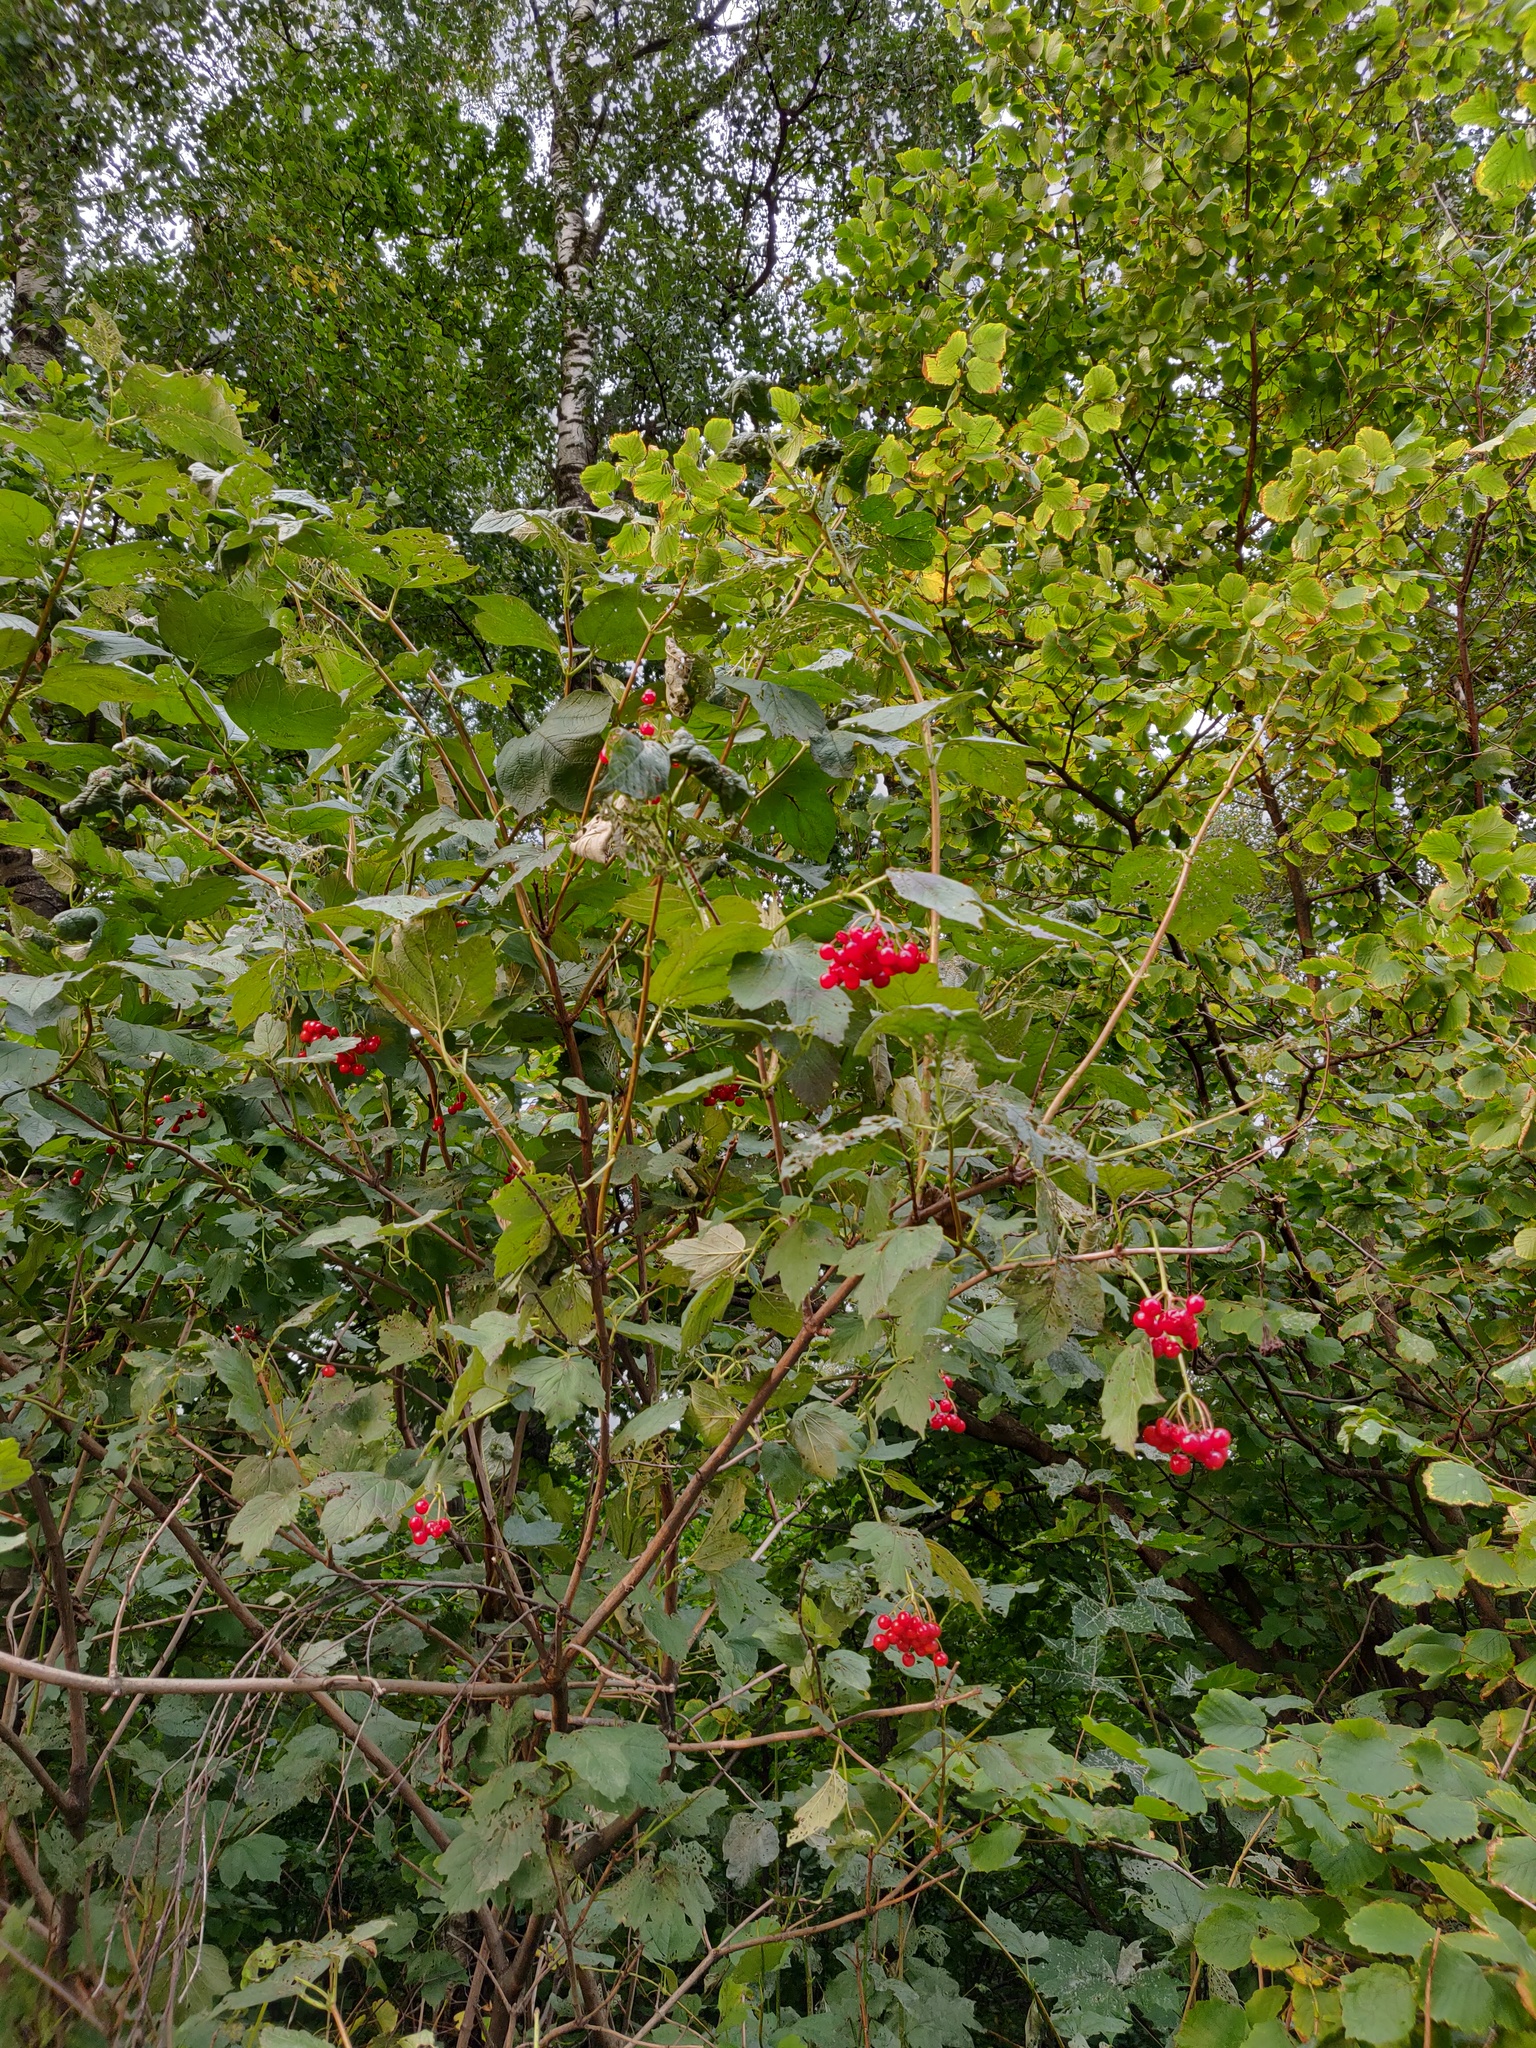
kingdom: Plantae
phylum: Tracheophyta
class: Magnoliopsida
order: Dipsacales
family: Viburnaceae
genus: Viburnum
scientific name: Viburnum opulus
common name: Guelder-rose
